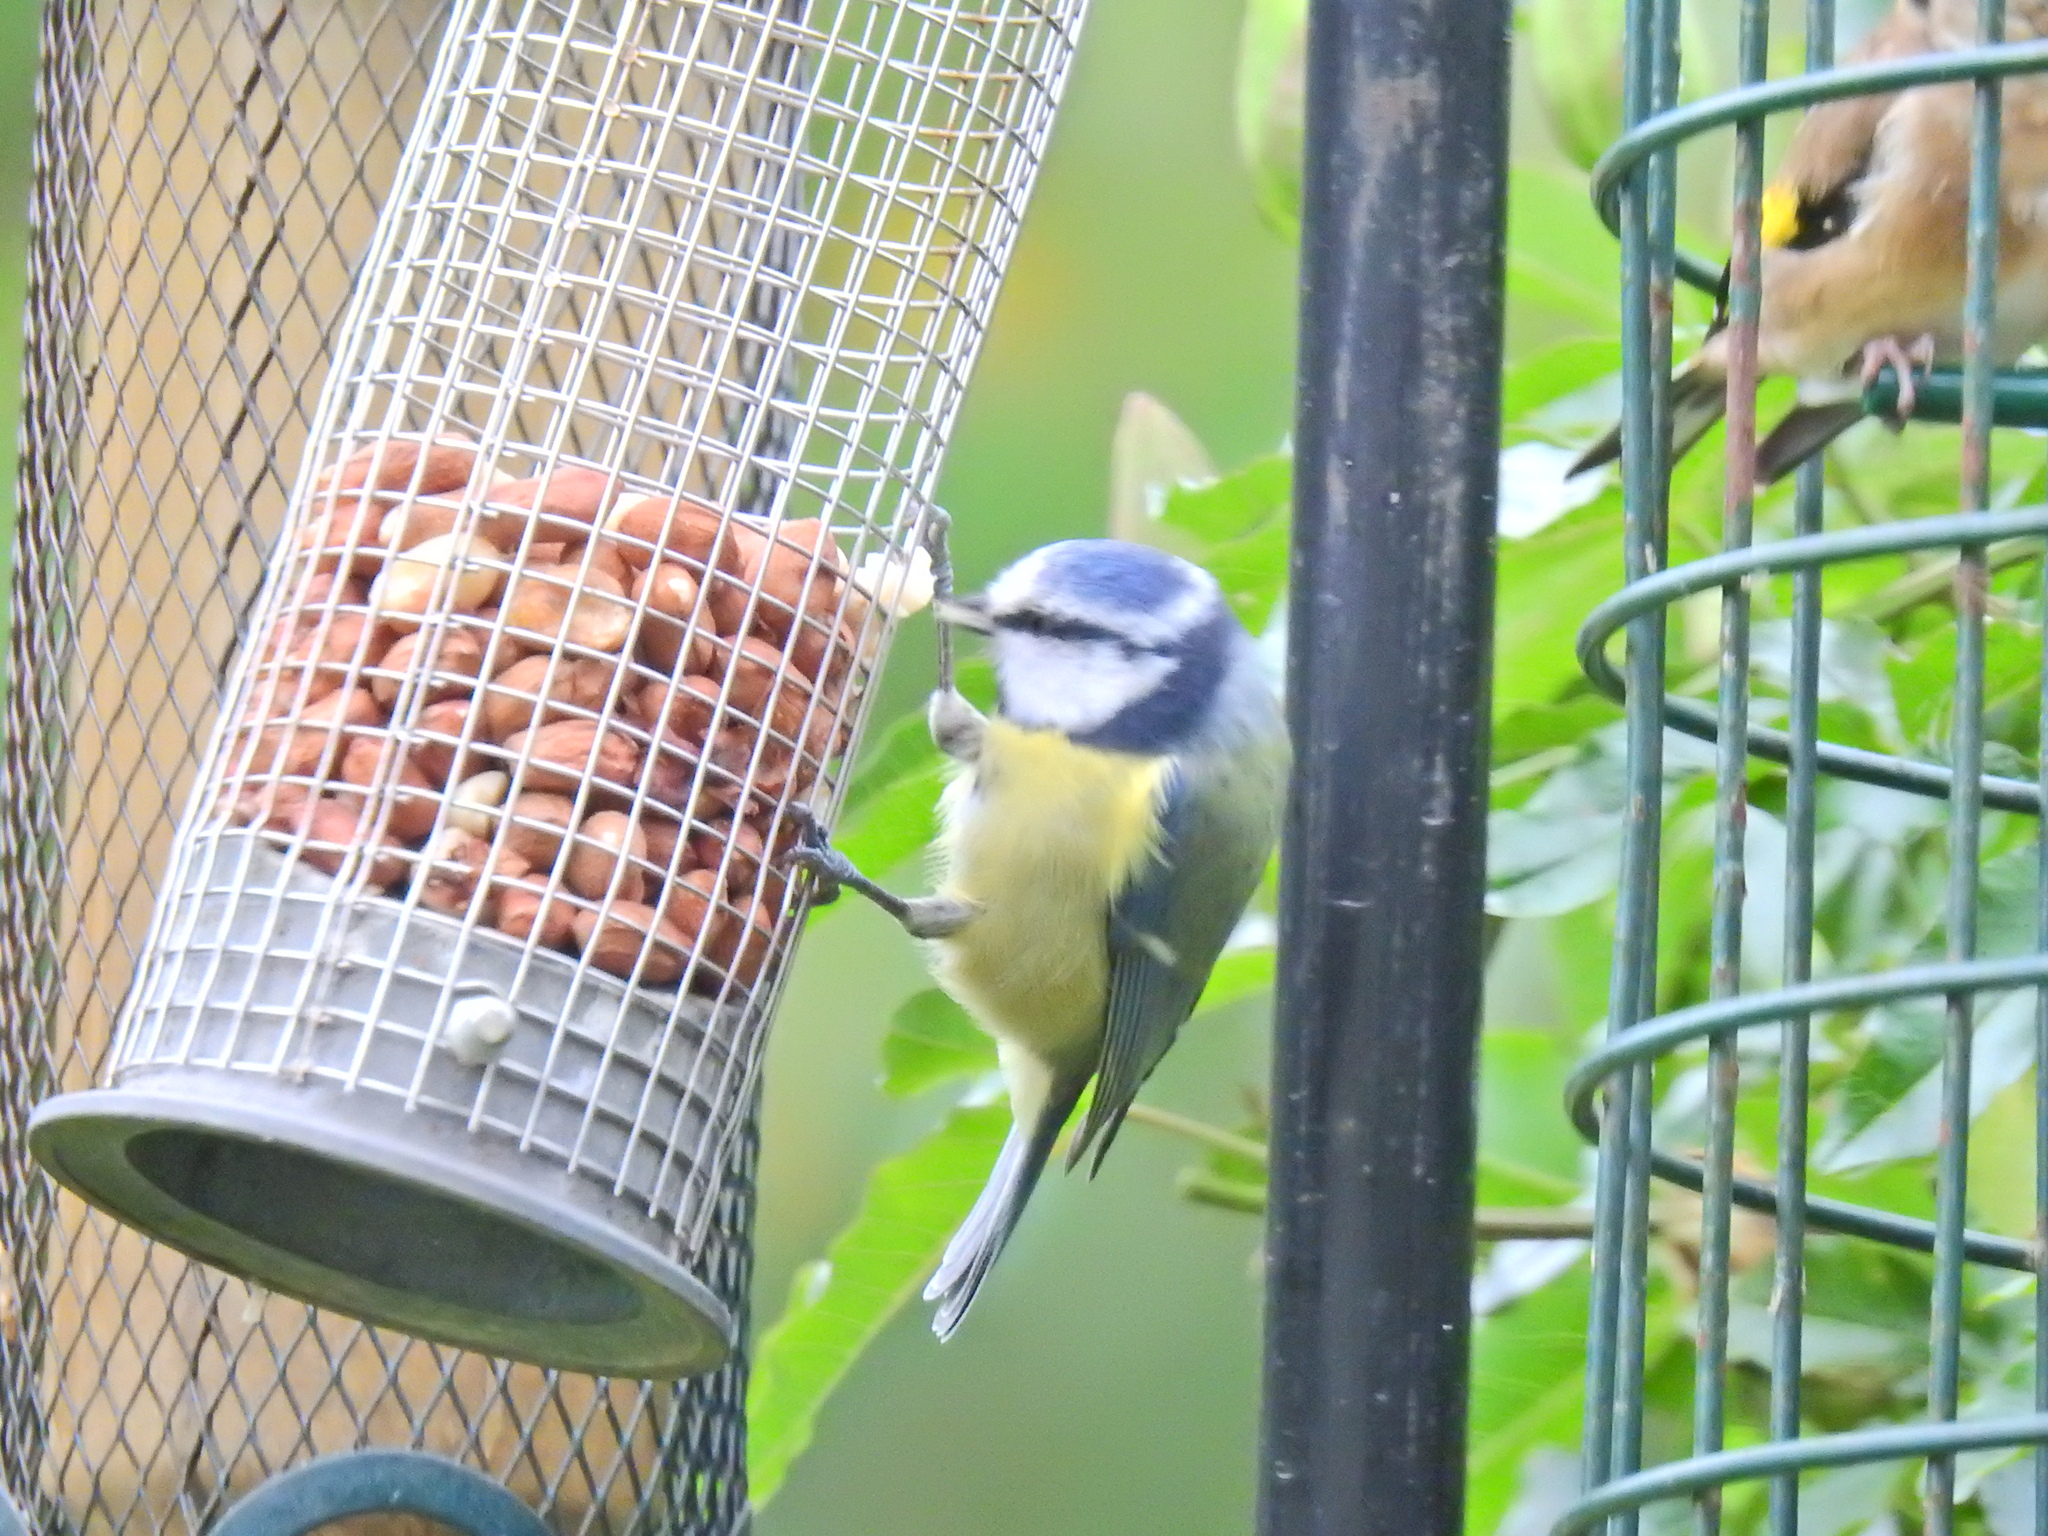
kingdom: Animalia
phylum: Chordata
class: Aves
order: Passeriformes
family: Paridae
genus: Cyanistes
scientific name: Cyanistes caeruleus
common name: Eurasian blue tit
